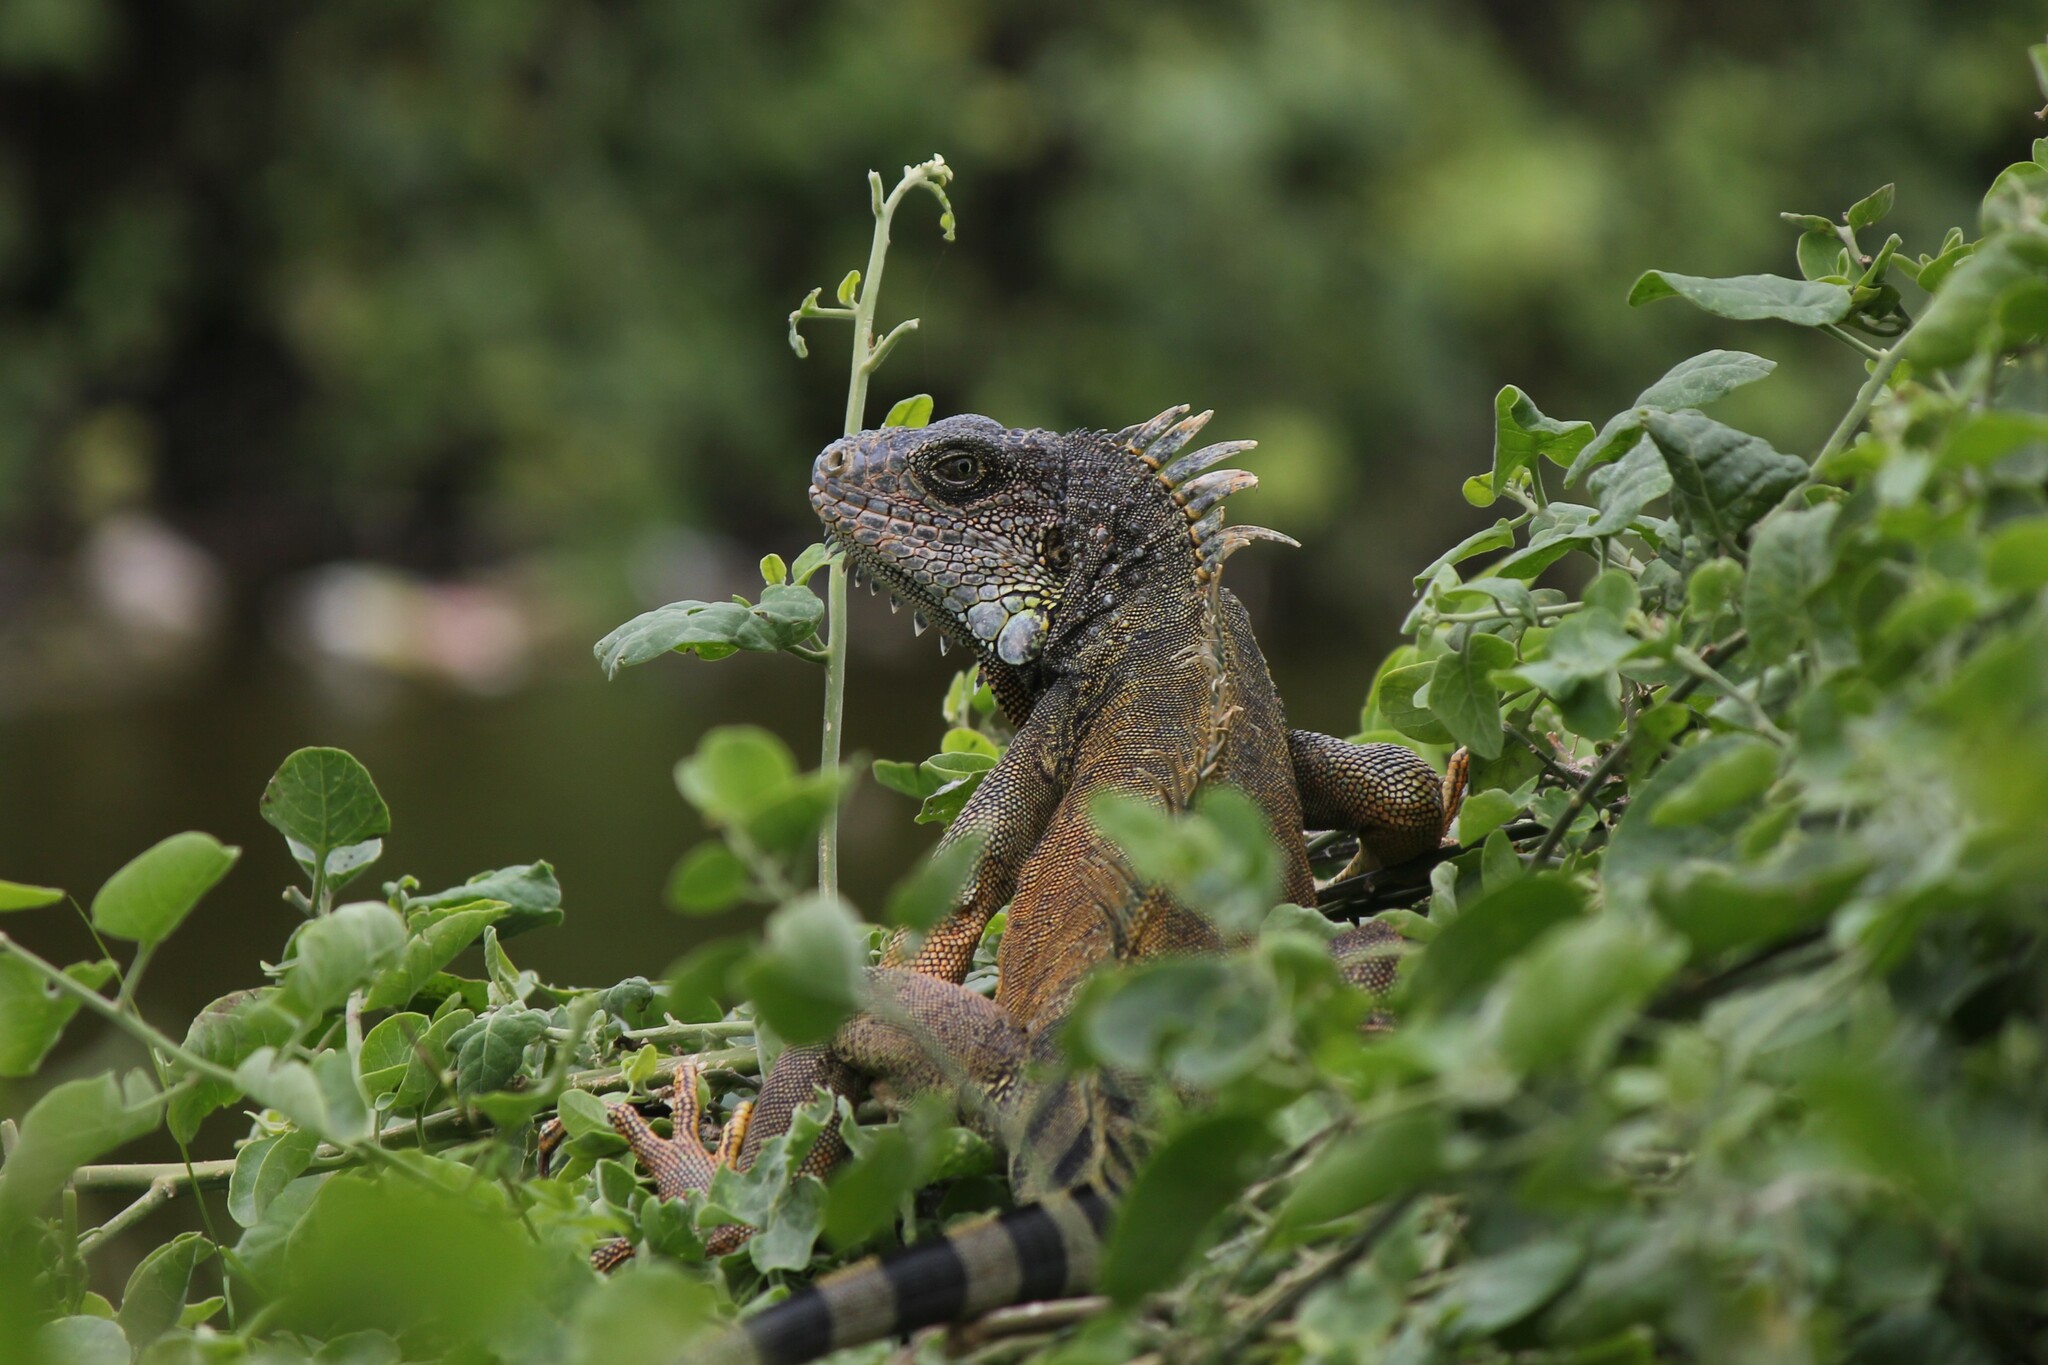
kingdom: Animalia
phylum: Chordata
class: Squamata
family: Iguanidae
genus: Iguana
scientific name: Iguana iguana
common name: Green iguana
